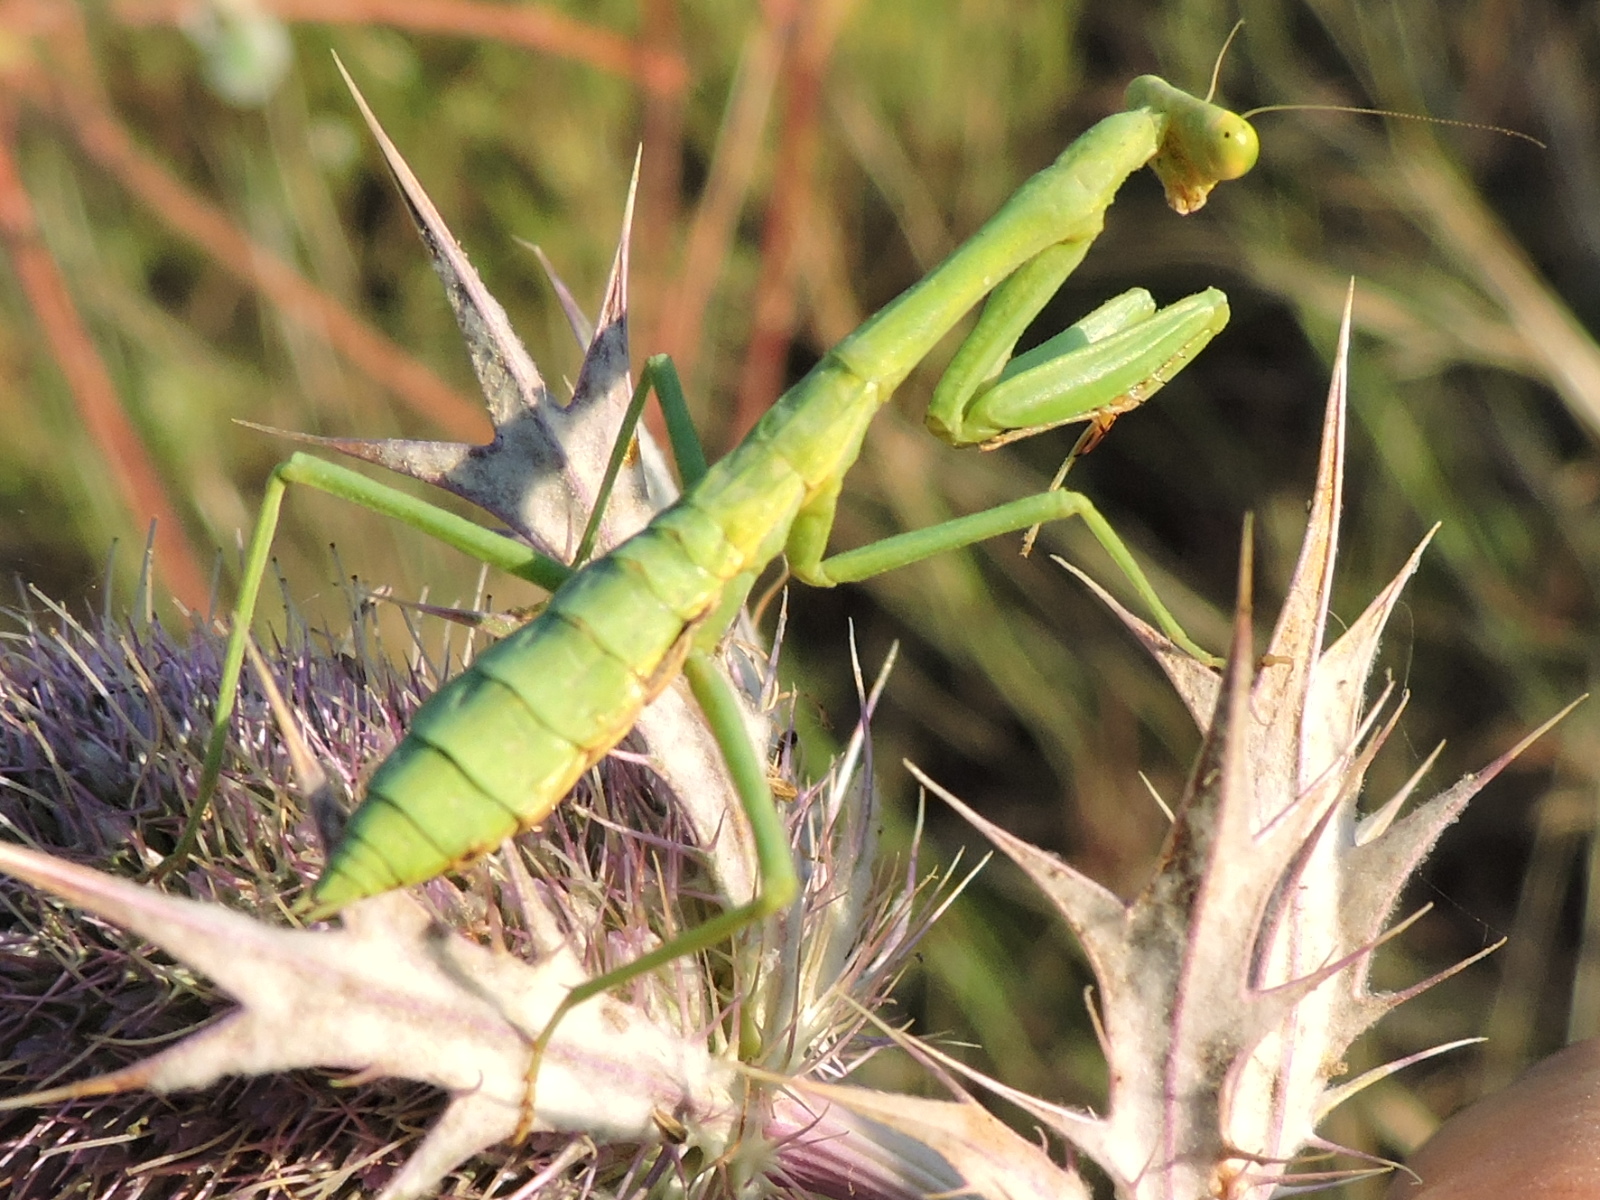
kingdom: Animalia
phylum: Arthropoda
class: Insecta
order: Mantodea
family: Mantidae
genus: Stagmomantis
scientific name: Stagmomantis carolina
